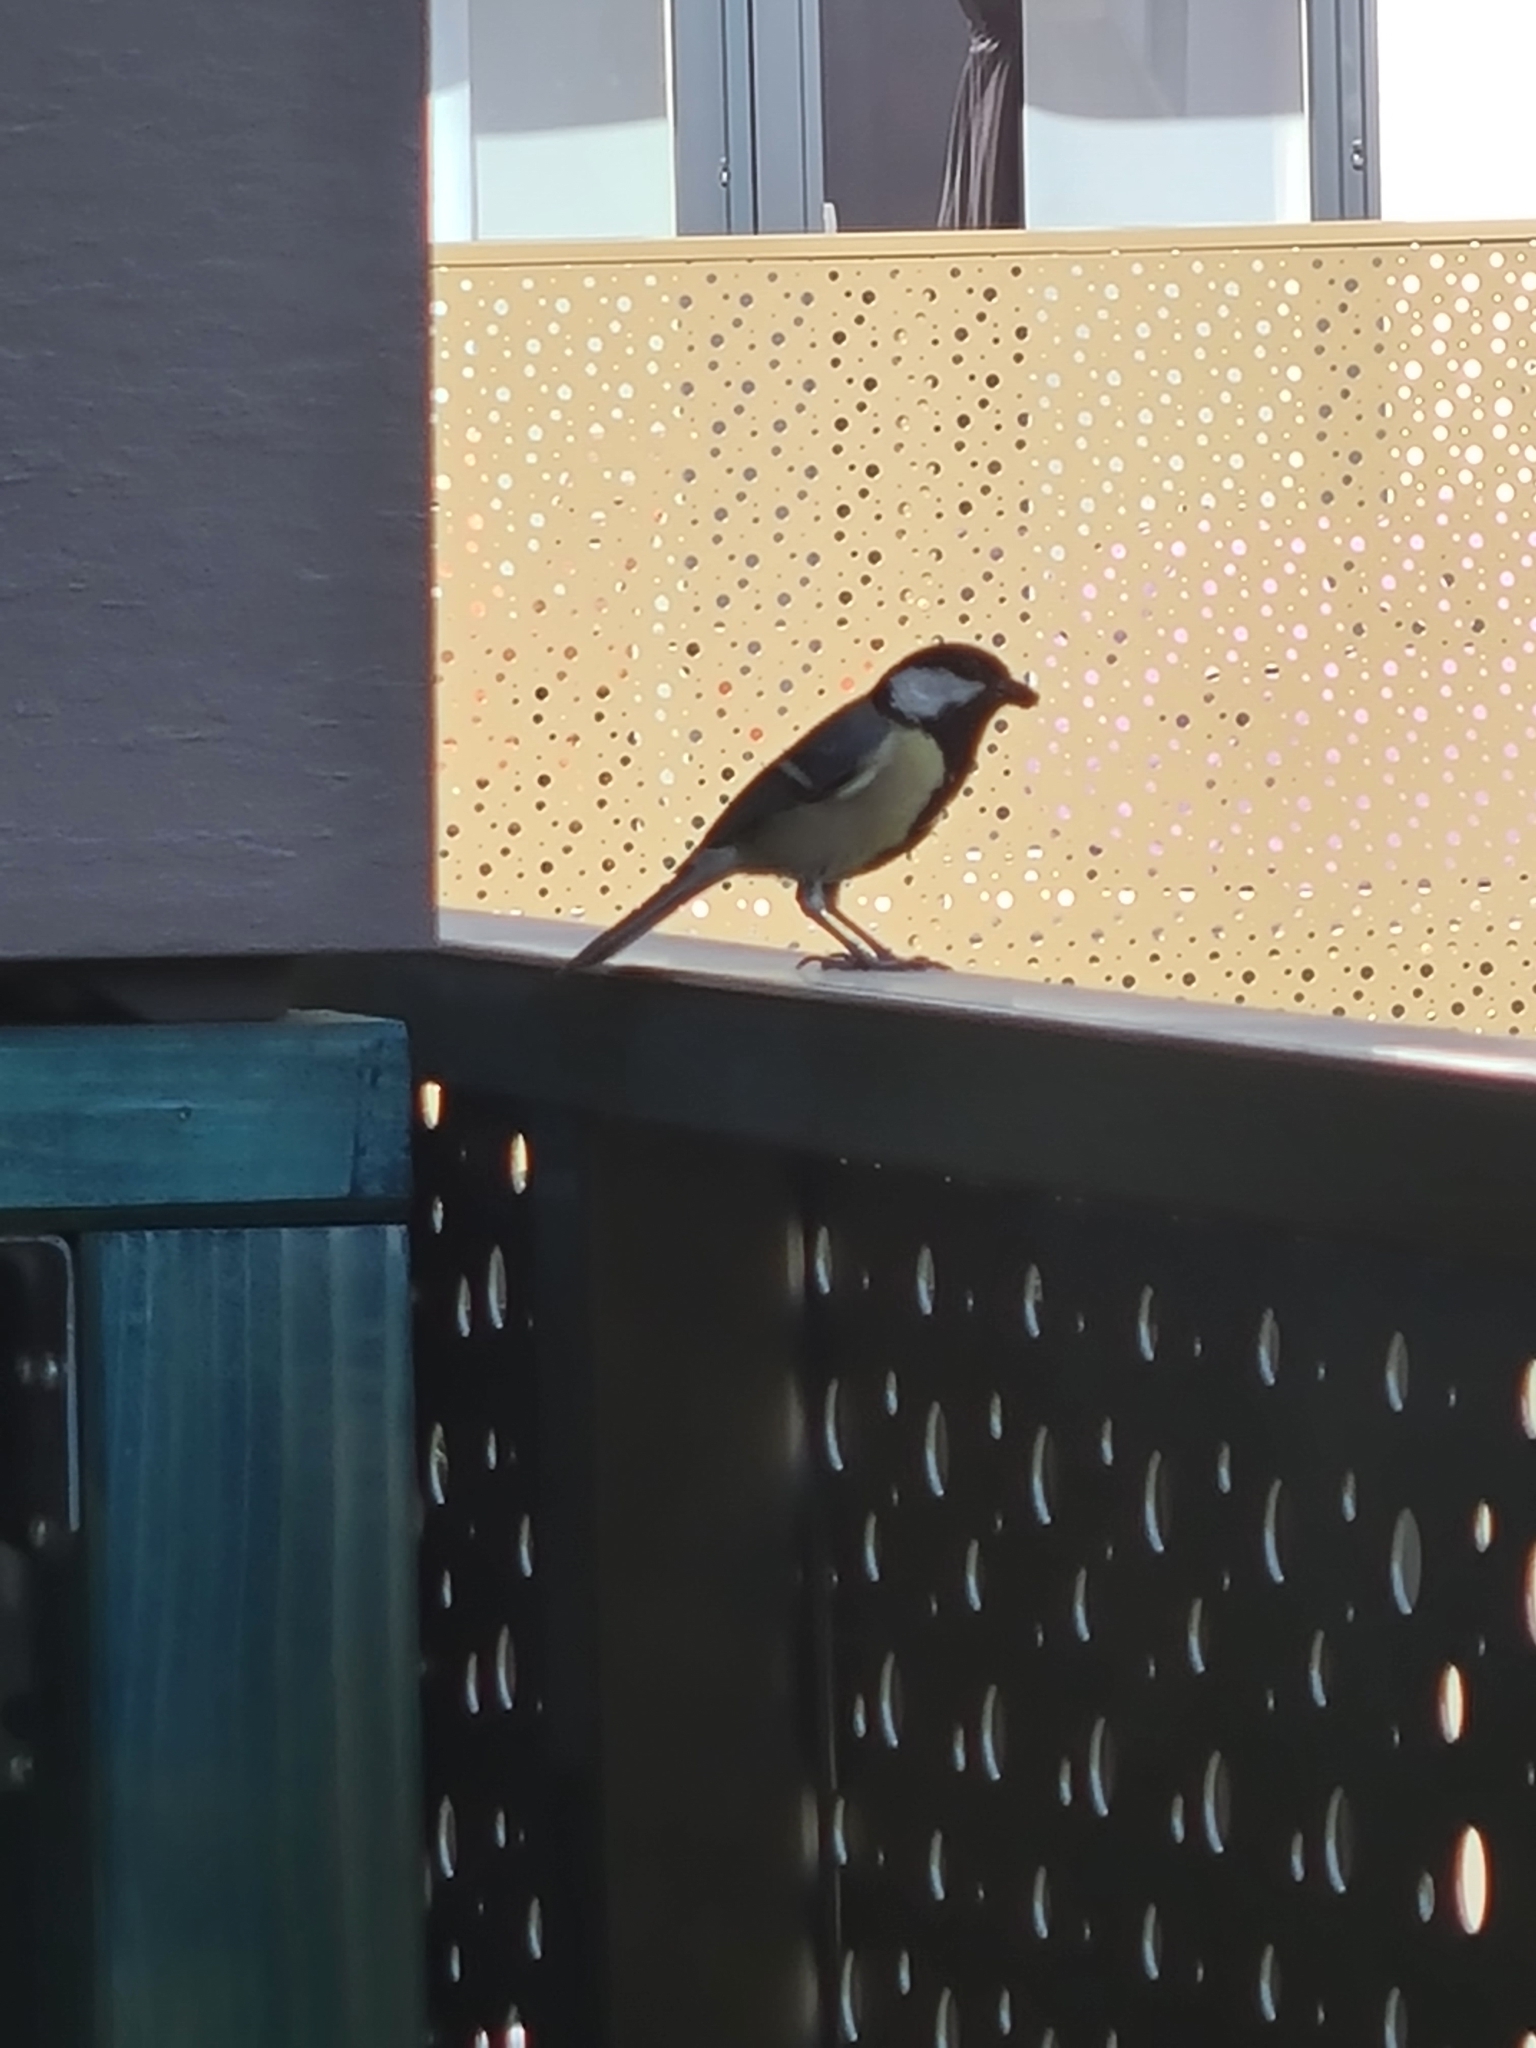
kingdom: Animalia
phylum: Chordata
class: Aves
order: Passeriformes
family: Paridae
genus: Parus
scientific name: Parus major
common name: Great tit
